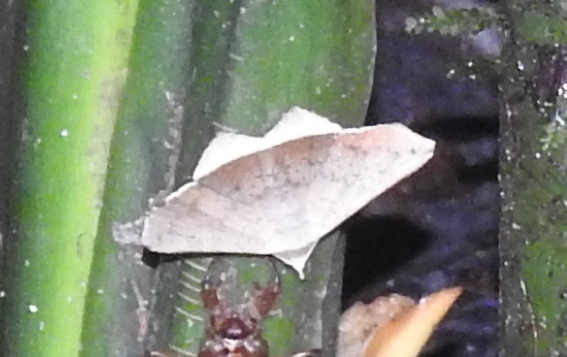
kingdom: Animalia
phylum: Arthropoda
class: Insecta
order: Lepidoptera
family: Erebidae
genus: Bendis
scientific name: Bendis aemylia
